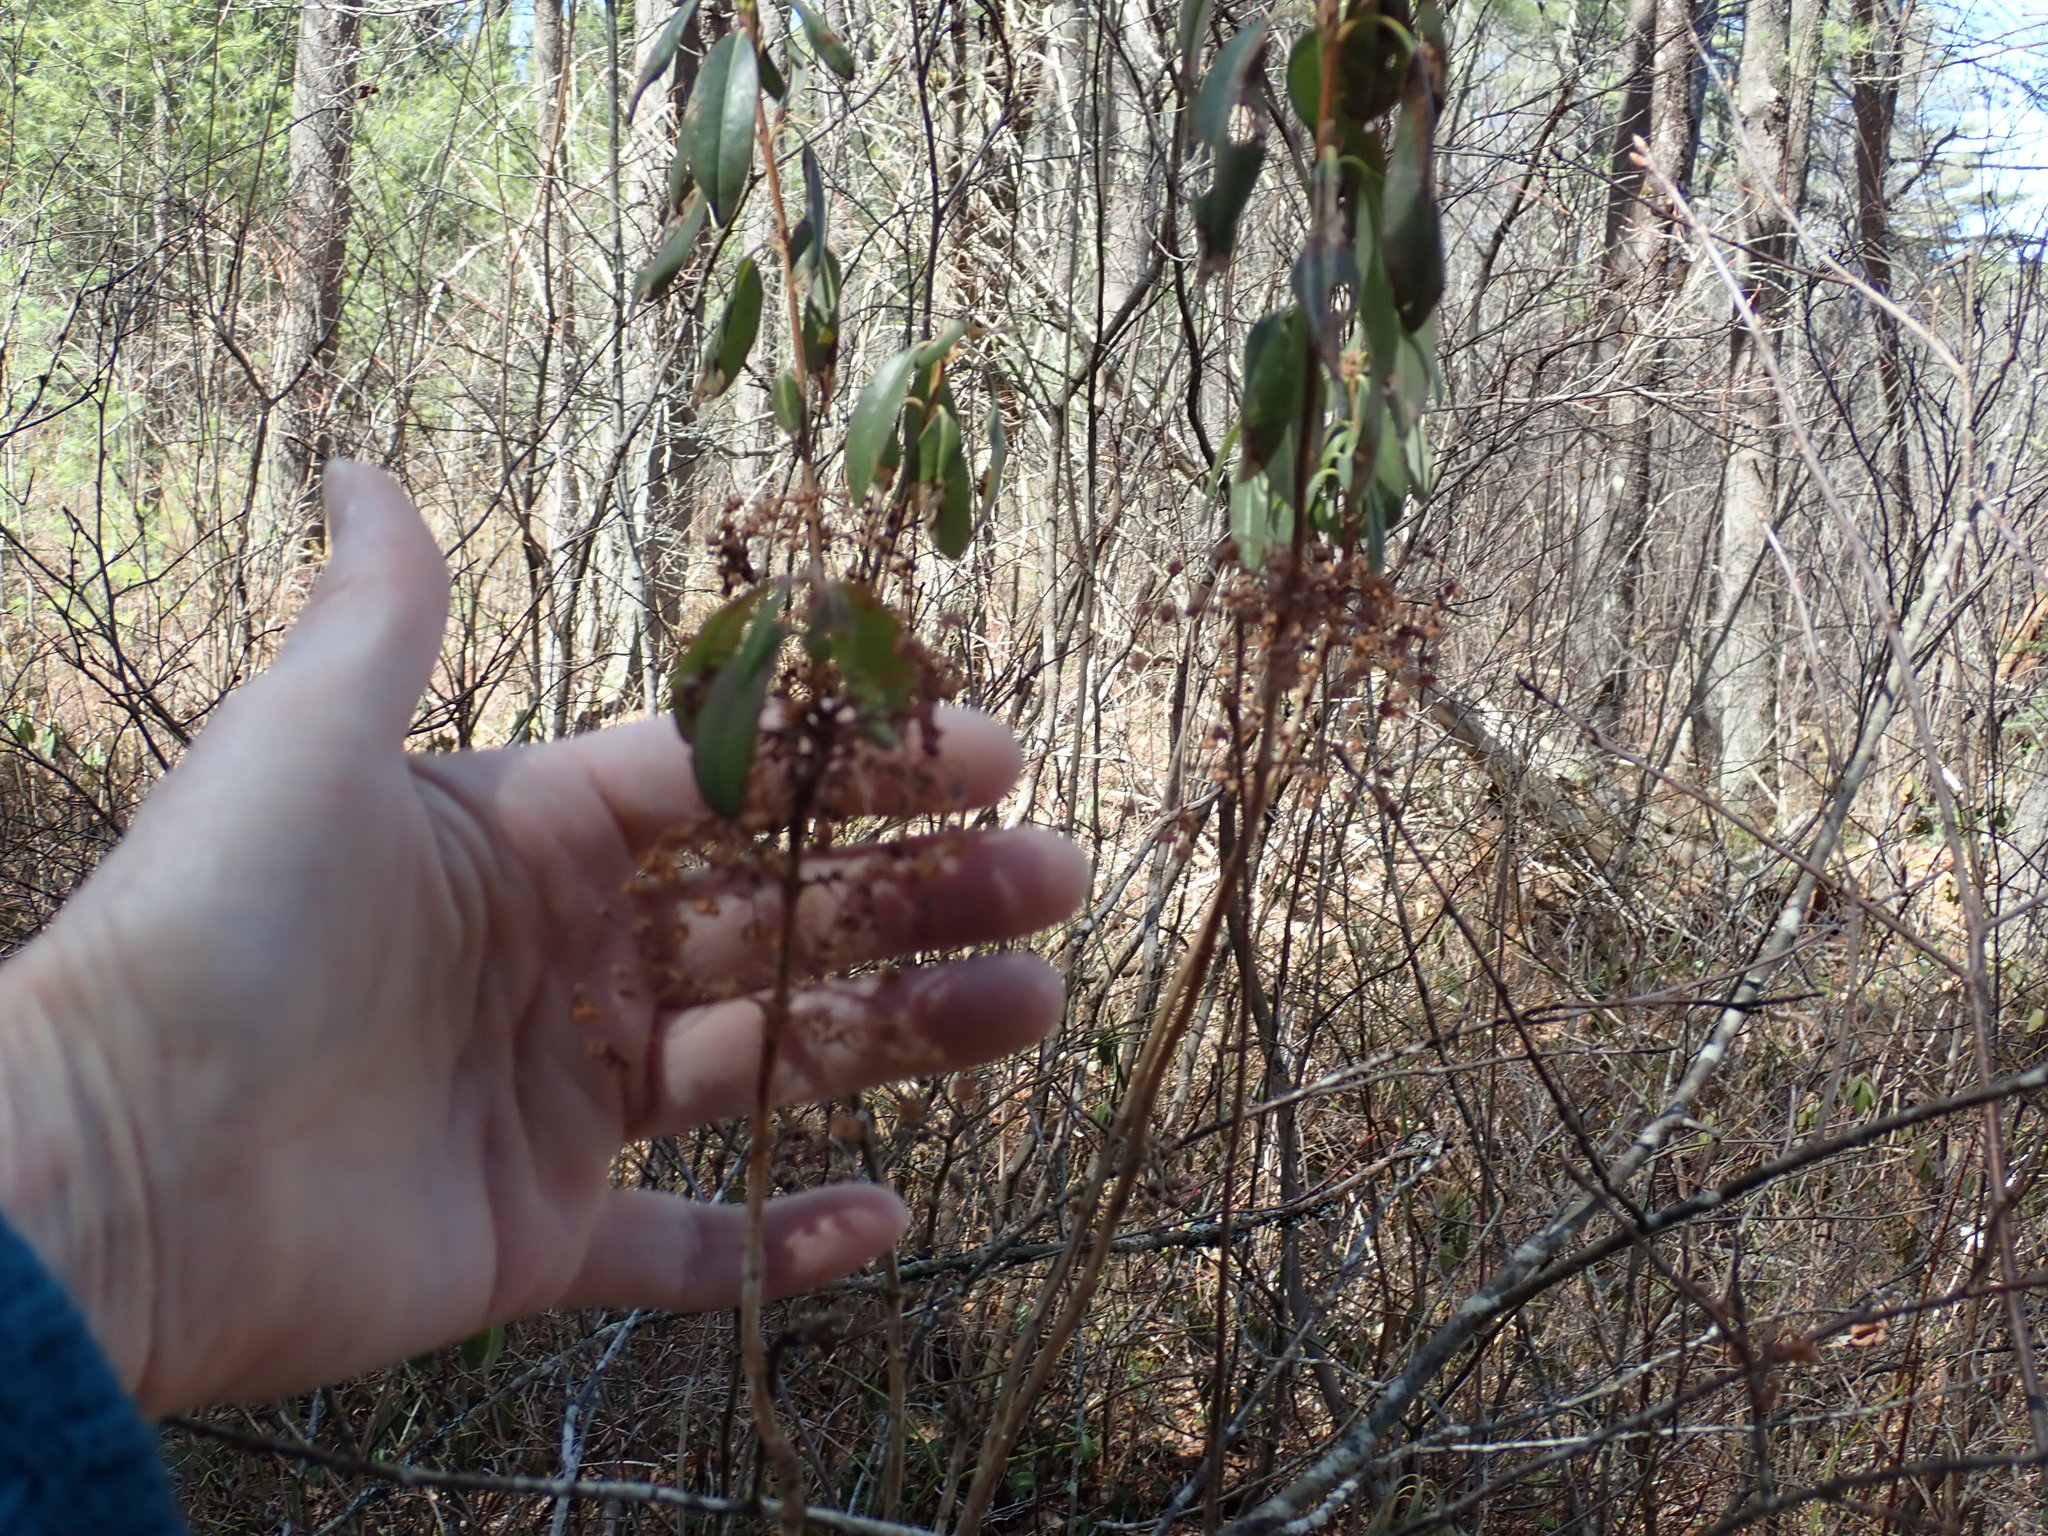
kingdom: Plantae
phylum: Tracheophyta
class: Magnoliopsida
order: Ericales
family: Ericaceae
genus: Kalmia
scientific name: Kalmia angustifolia
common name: Sheep-laurel
